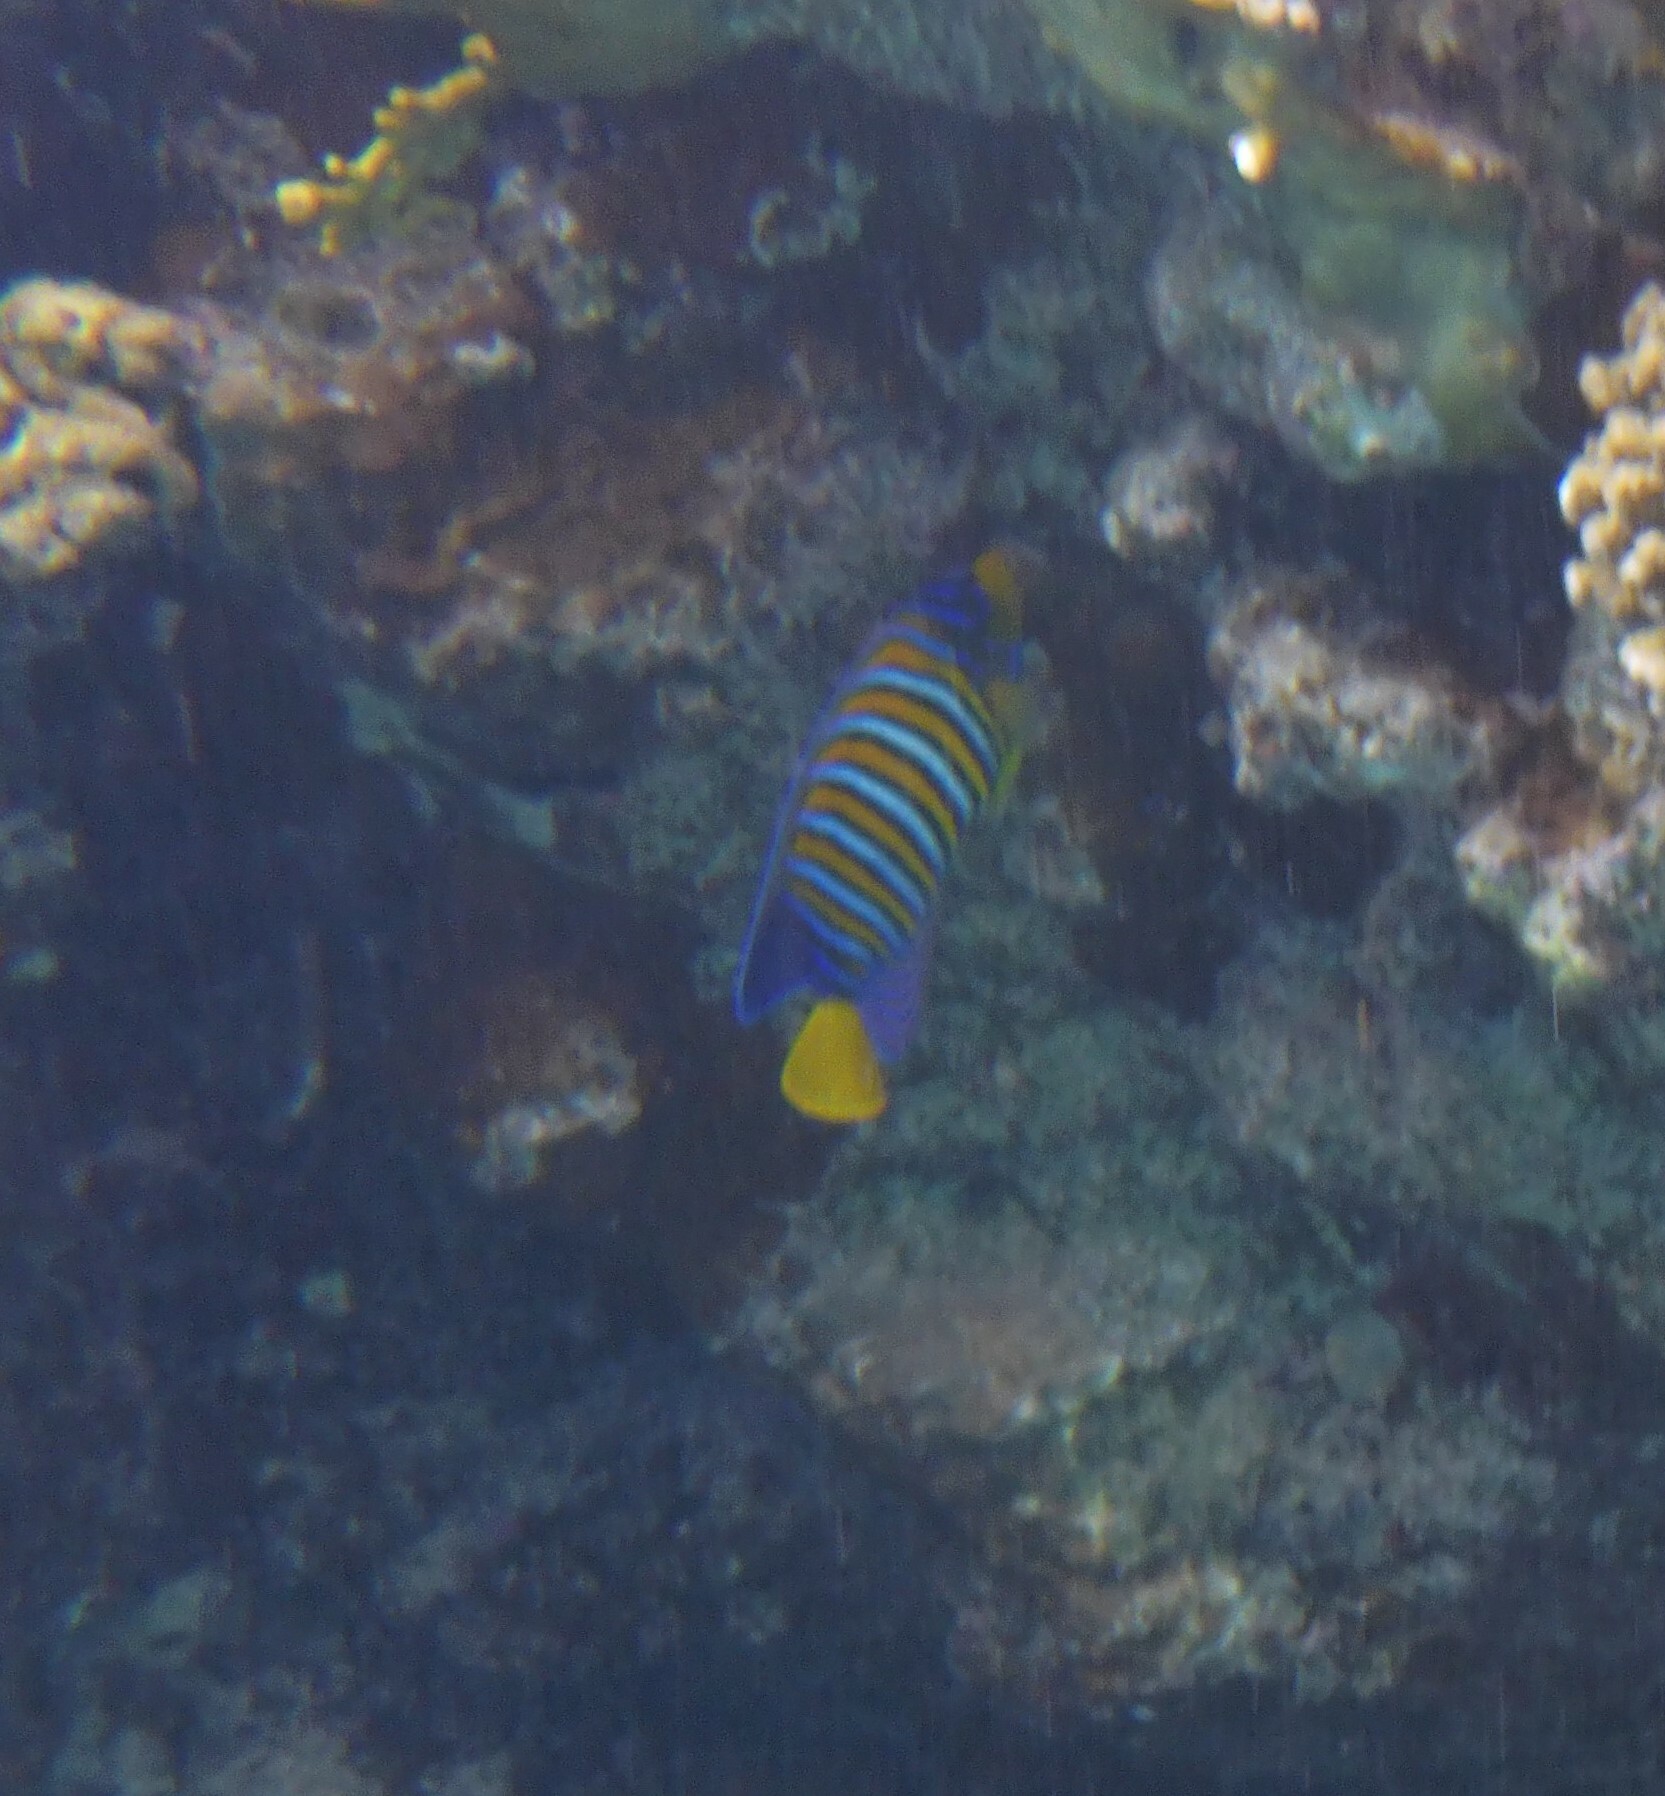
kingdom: Animalia
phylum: Chordata
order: Perciformes
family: Pomacanthidae
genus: Pygoplites
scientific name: Pygoplites diacanthus
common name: Regal angelfish
